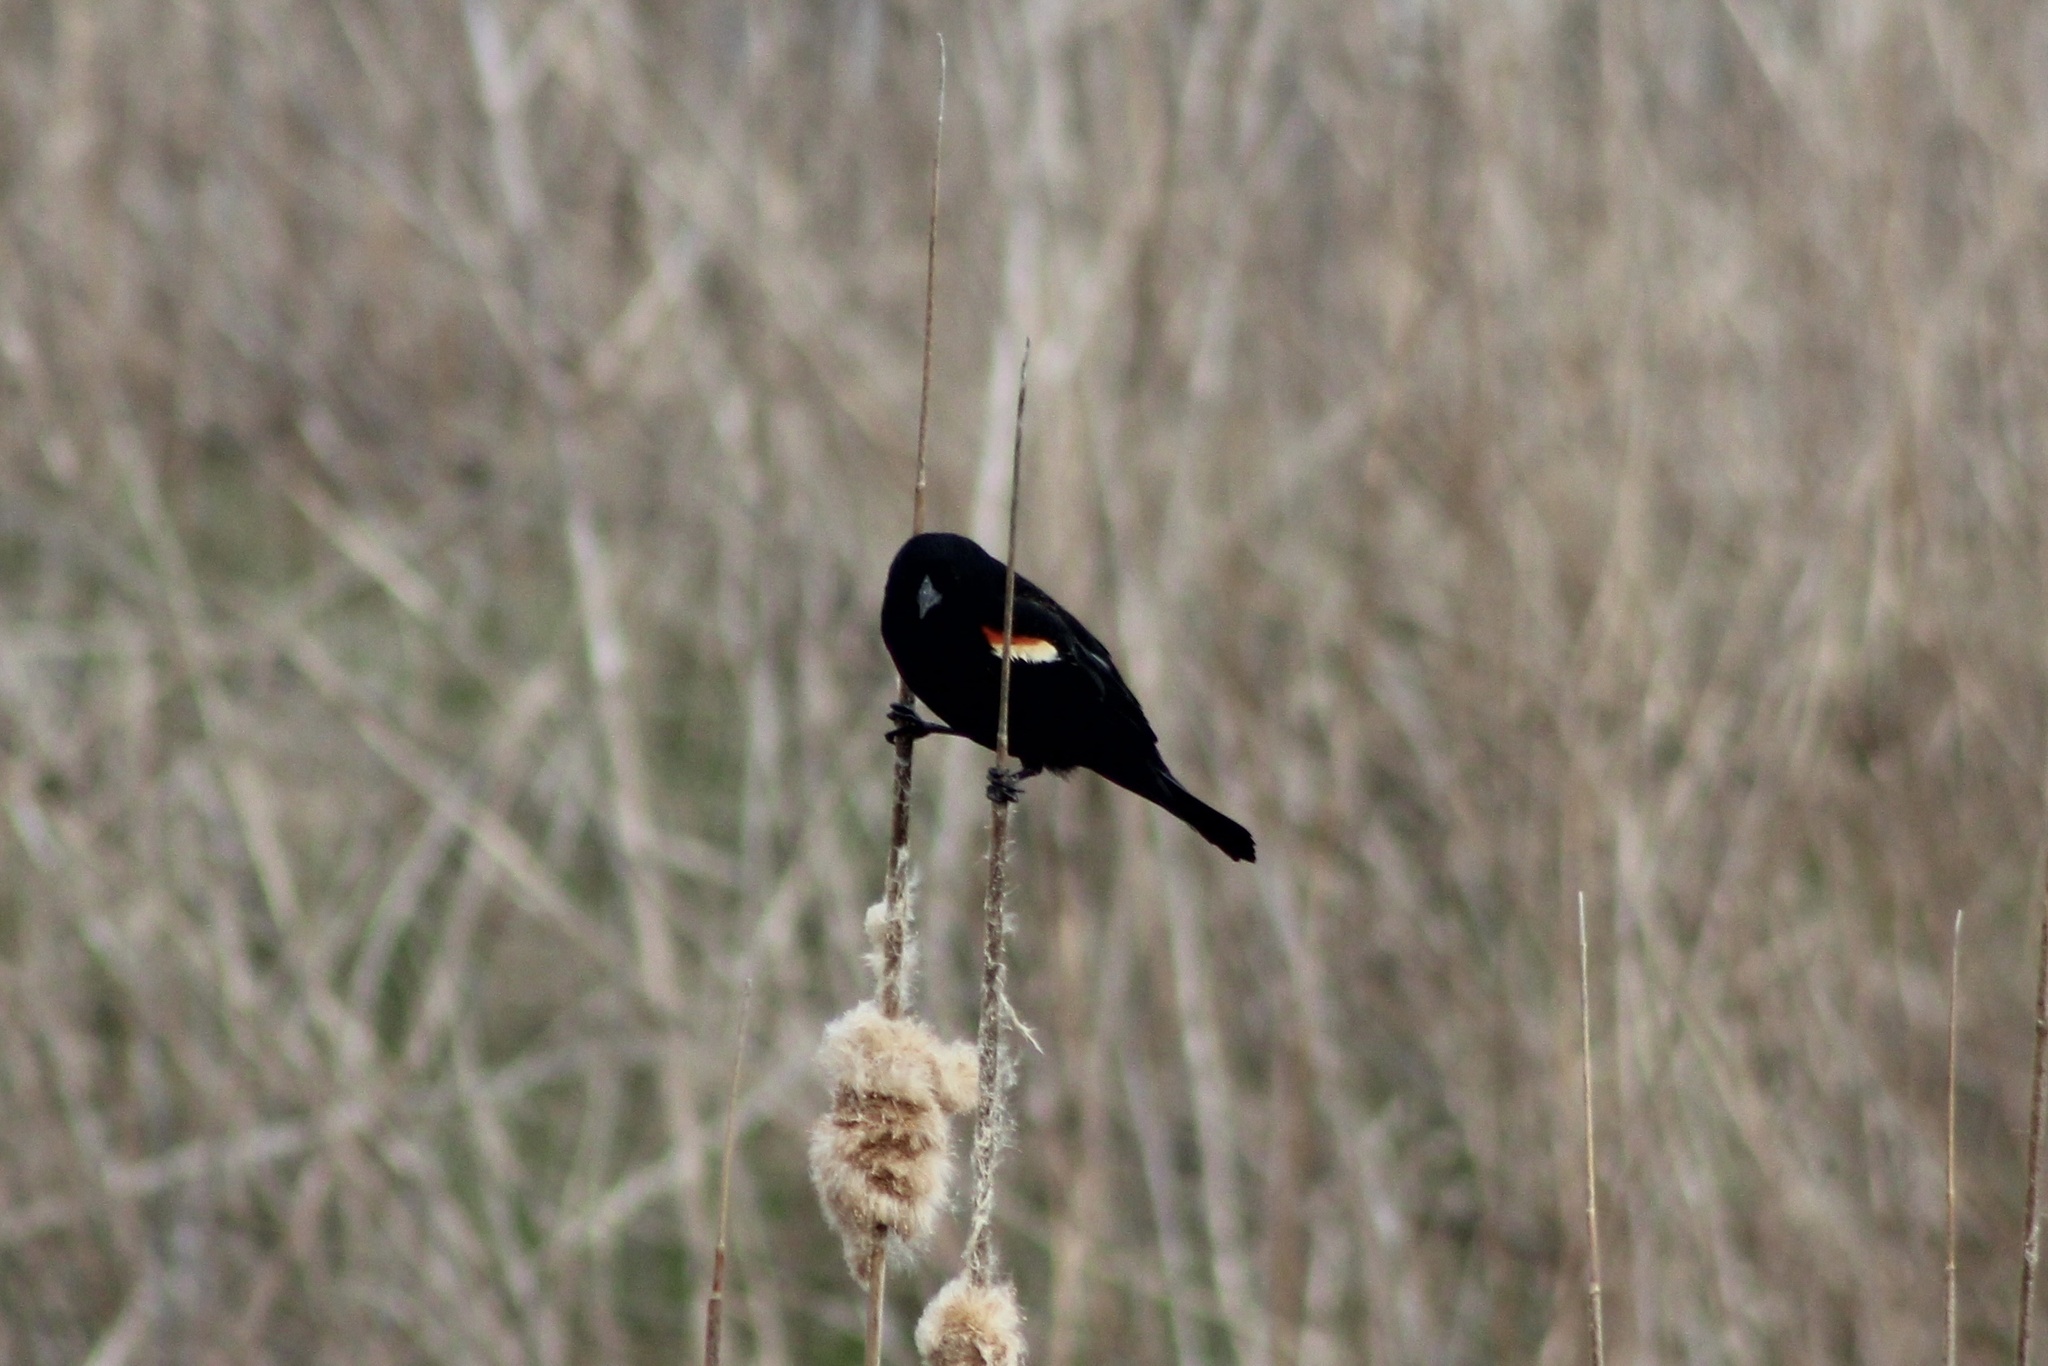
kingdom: Animalia
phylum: Chordata
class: Aves
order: Passeriformes
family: Icteridae
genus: Agelaius
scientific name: Agelaius phoeniceus
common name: Red-winged blackbird
